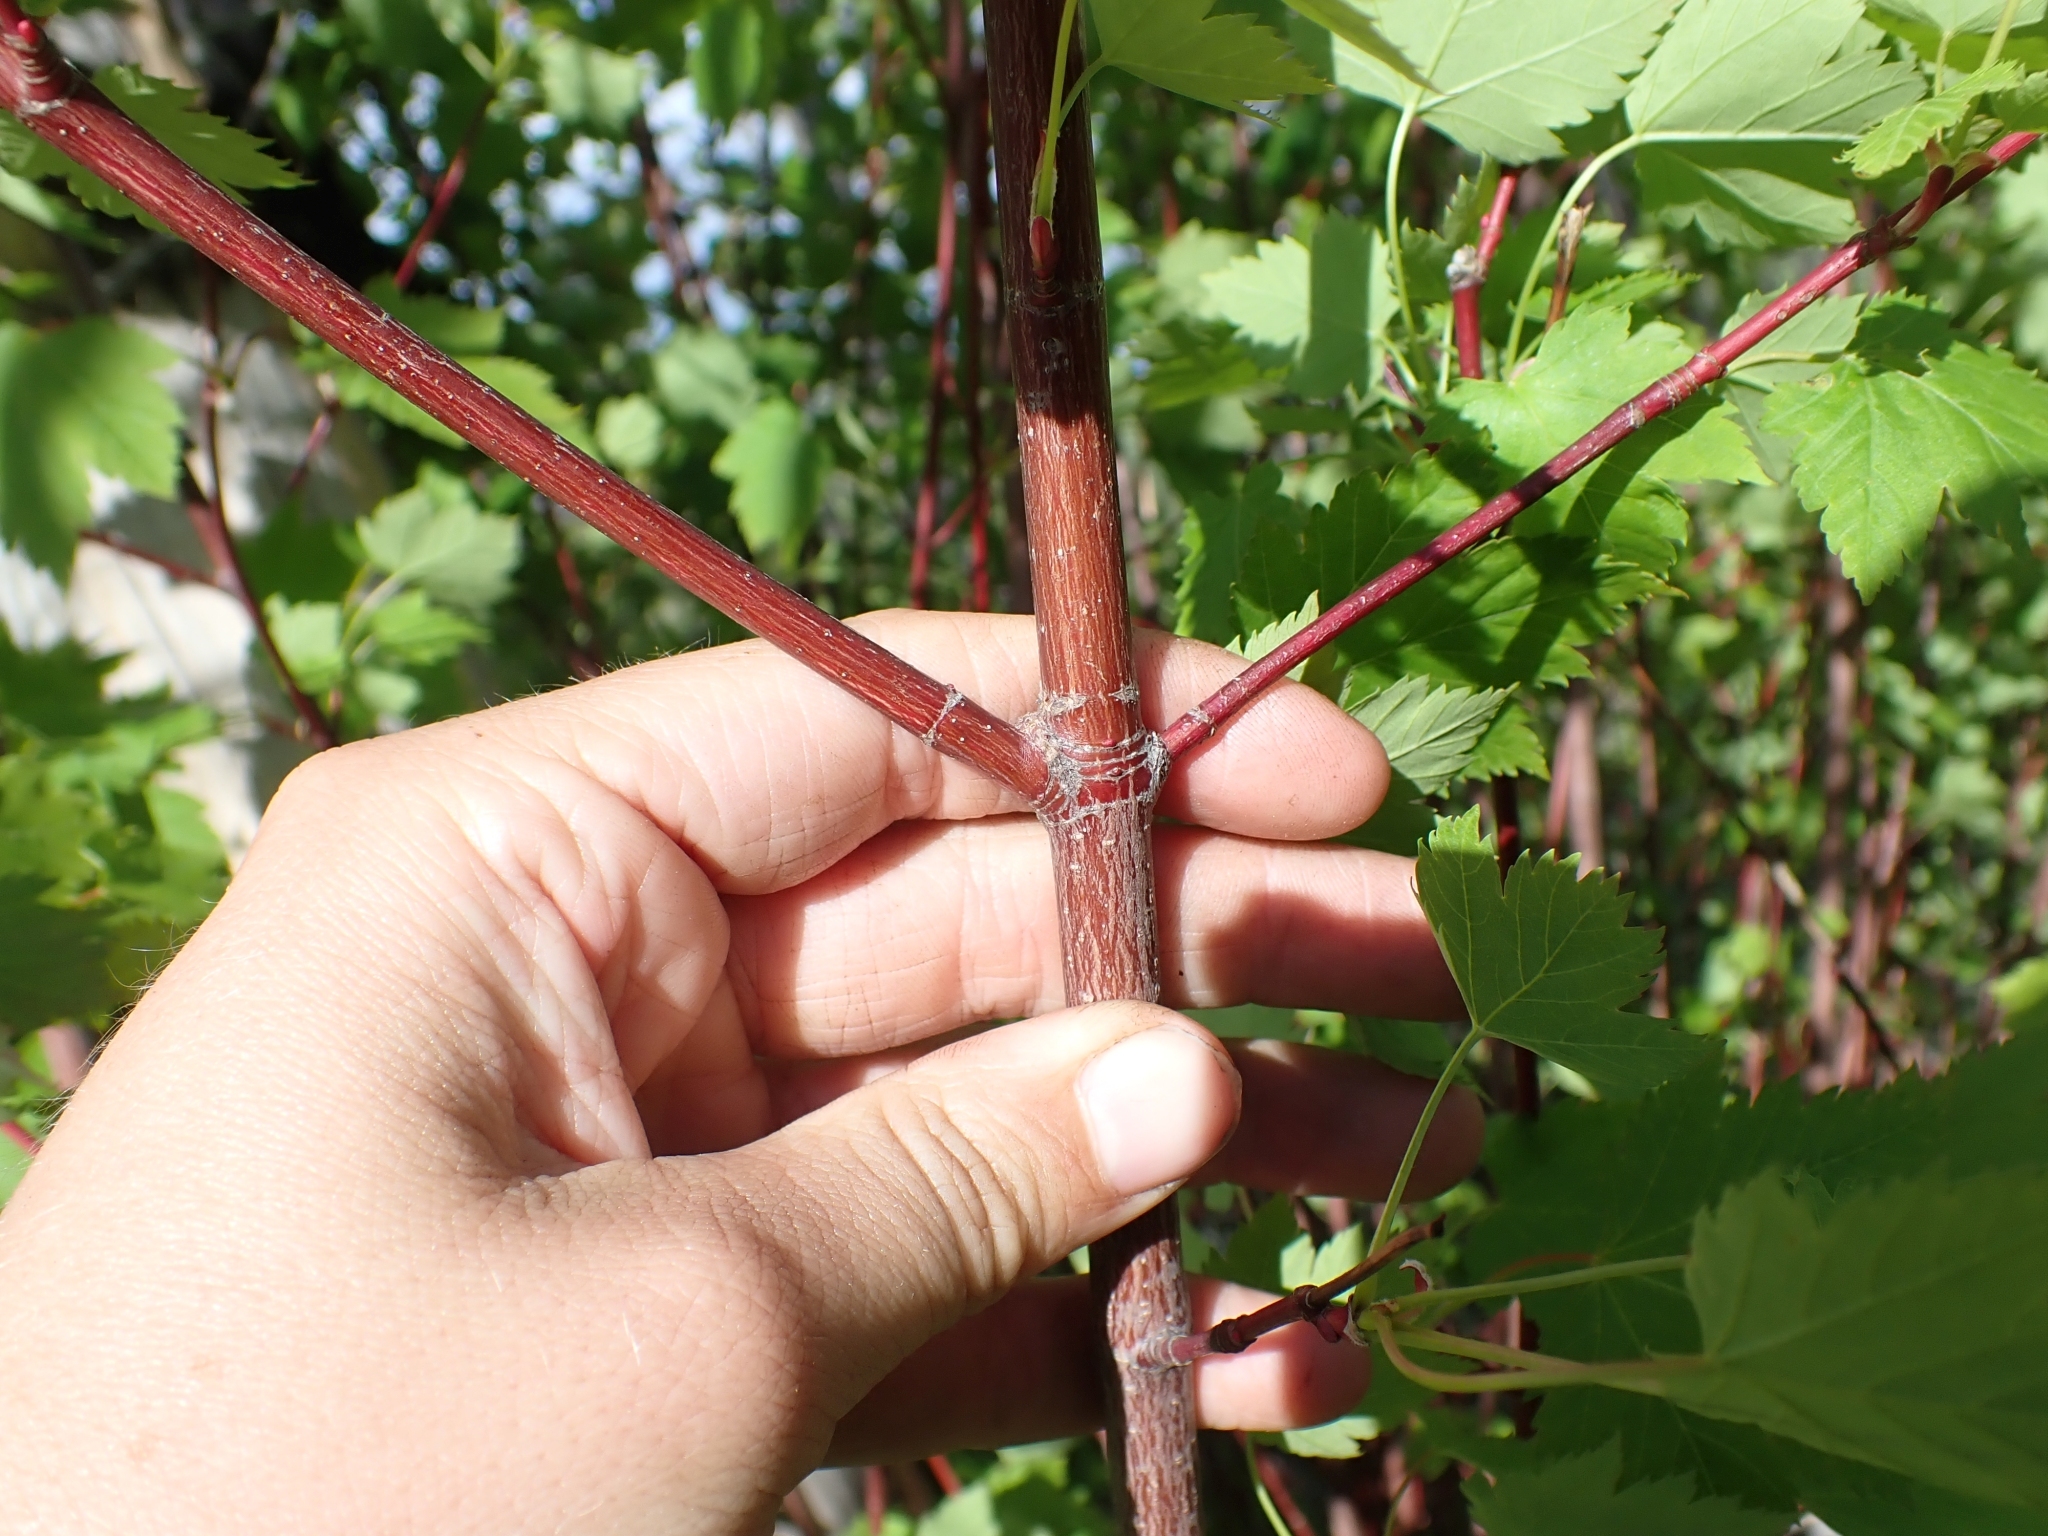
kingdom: Plantae
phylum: Tracheophyta
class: Magnoliopsida
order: Sapindales
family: Sapindaceae
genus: Acer
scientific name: Acer glabrum
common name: Rocky mountain maple
